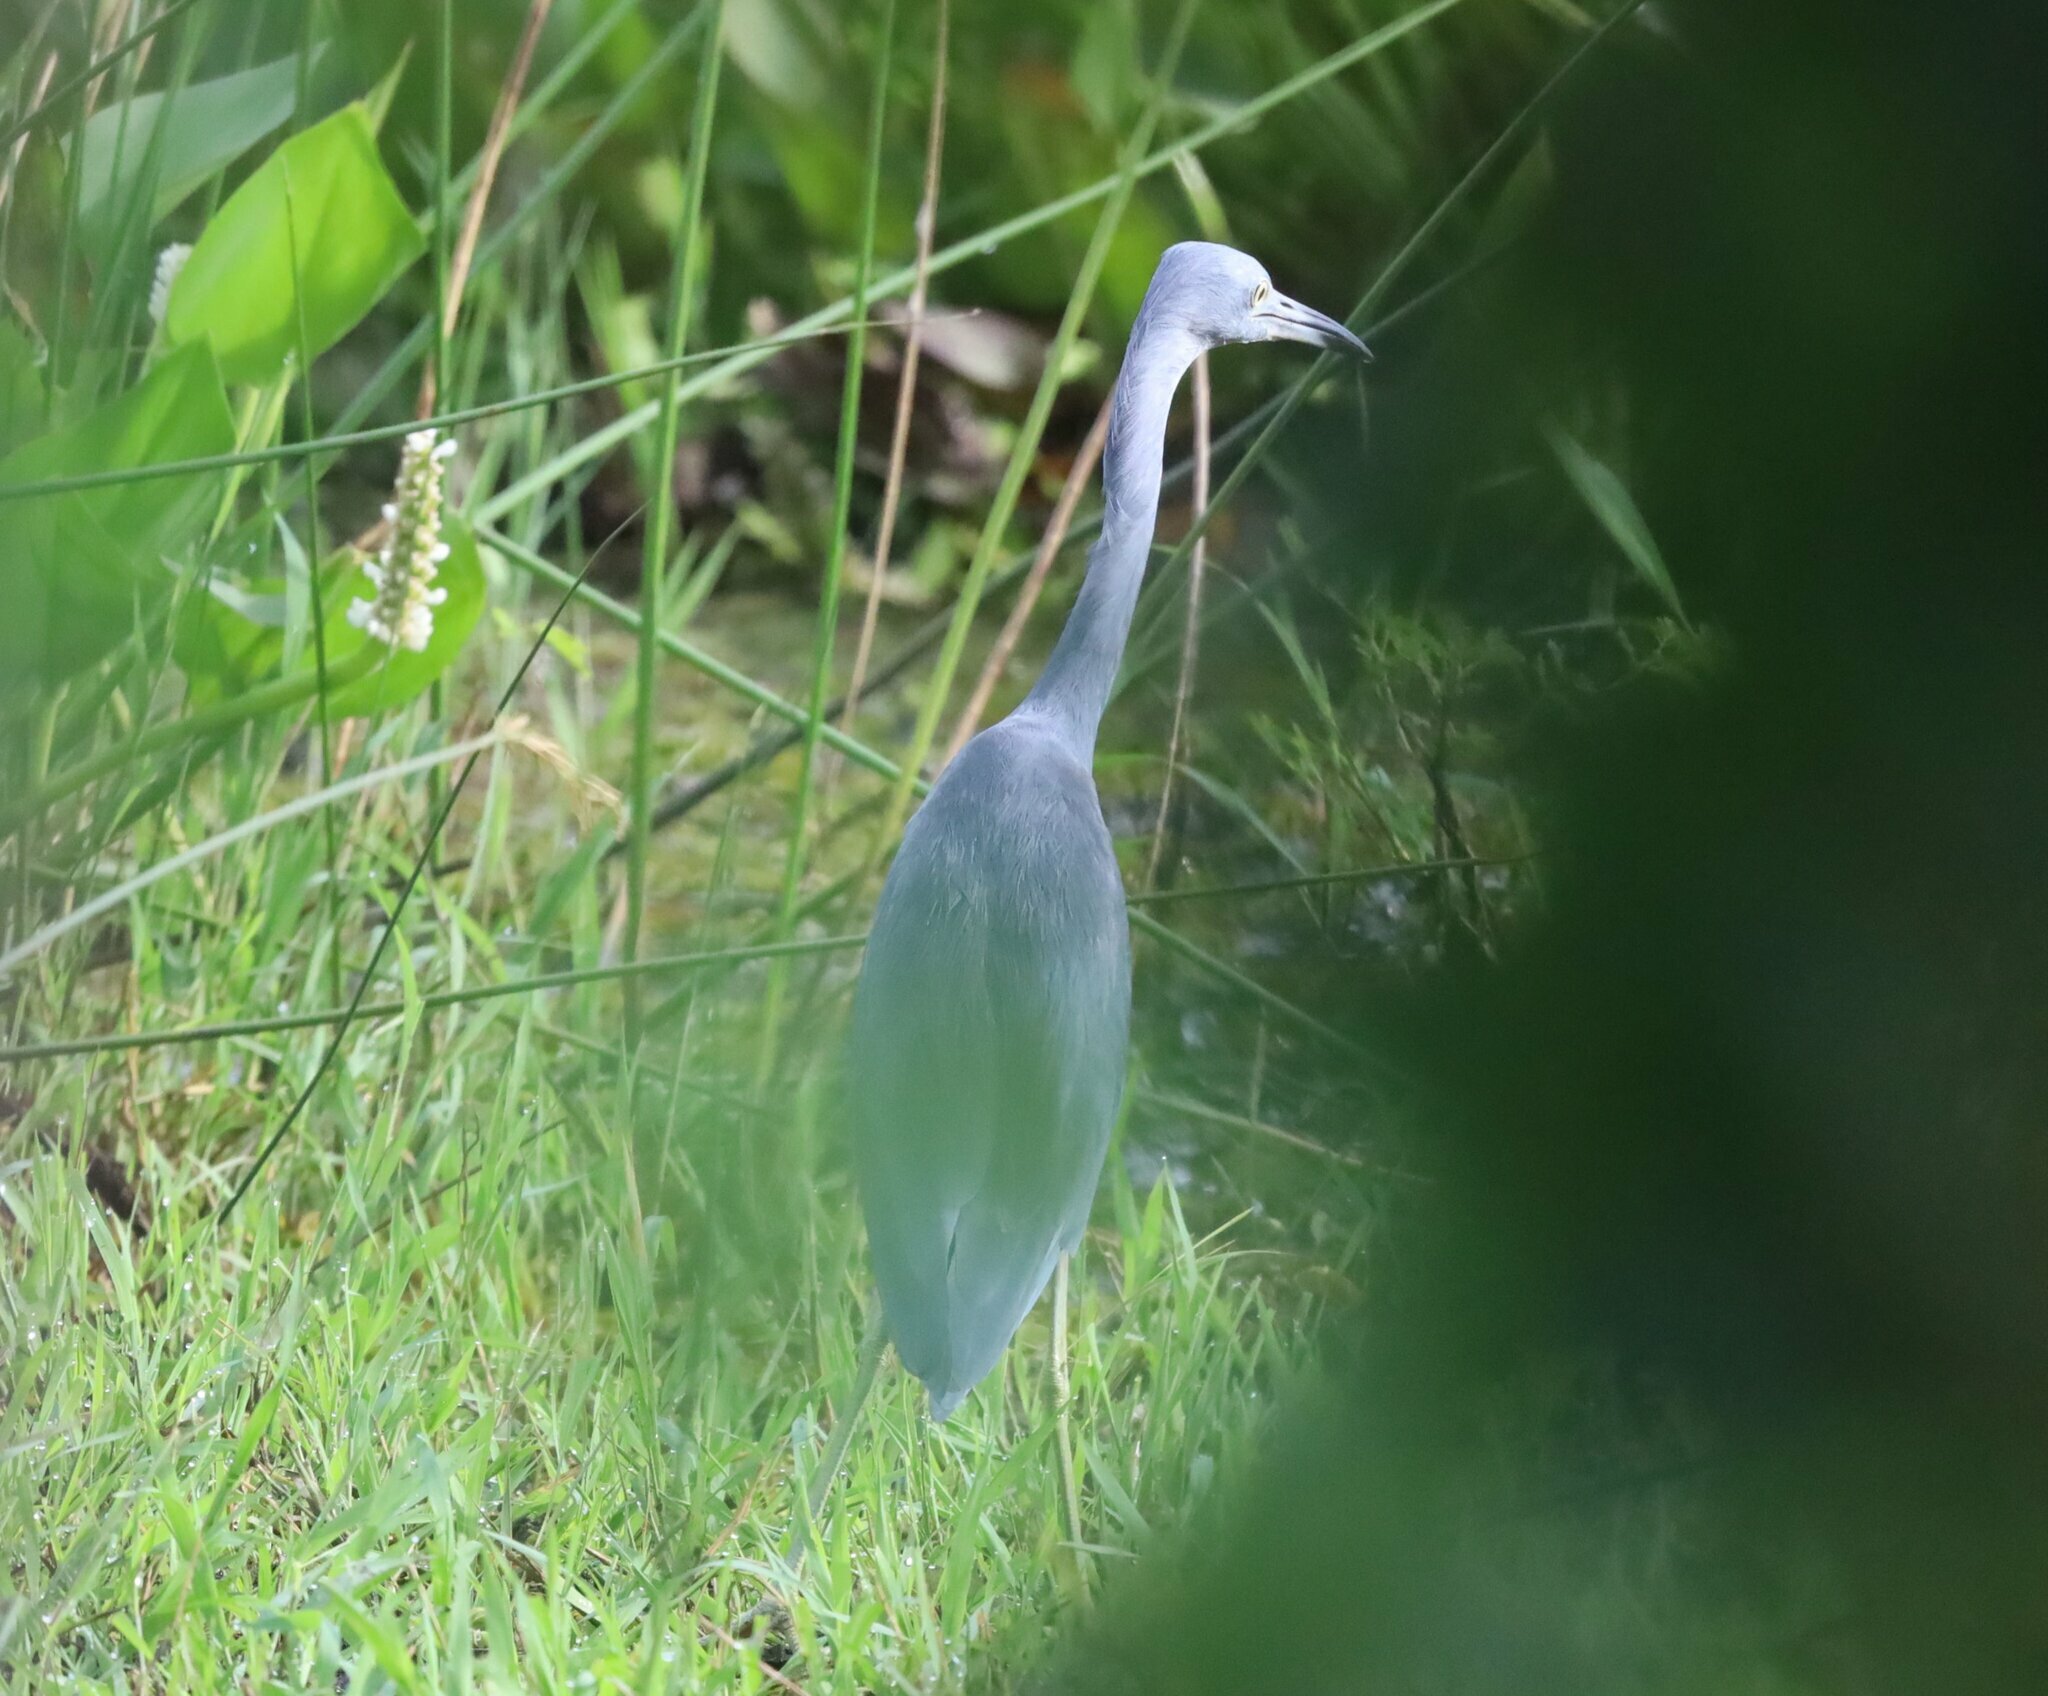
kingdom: Animalia
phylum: Chordata
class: Aves
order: Pelecaniformes
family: Ardeidae
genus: Egretta
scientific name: Egretta caerulea
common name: Little blue heron
